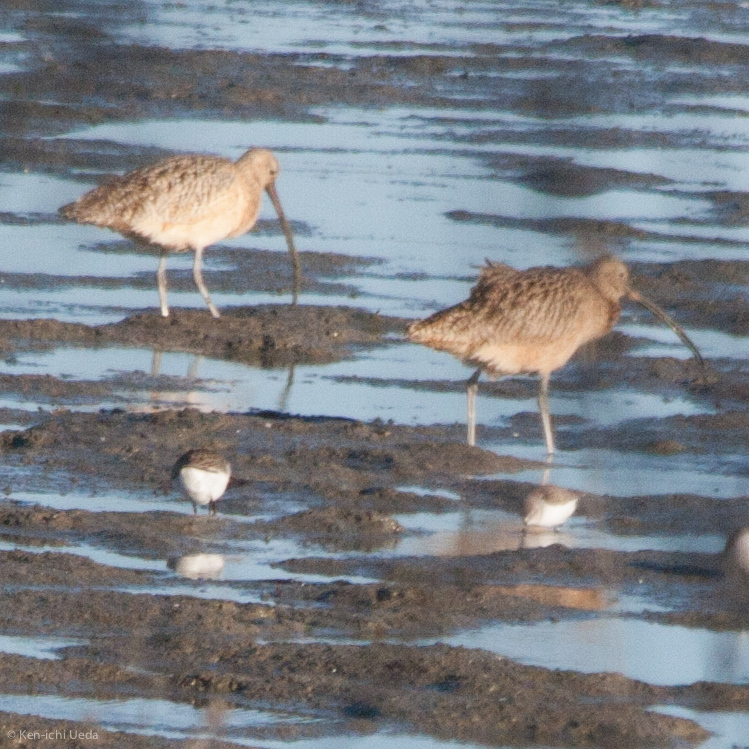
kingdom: Animalia
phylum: Chordata
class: Aves
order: Charadriiformes
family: Scolopacidae
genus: Numenius
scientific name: Numenius americanus
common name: Long-billed curlew
